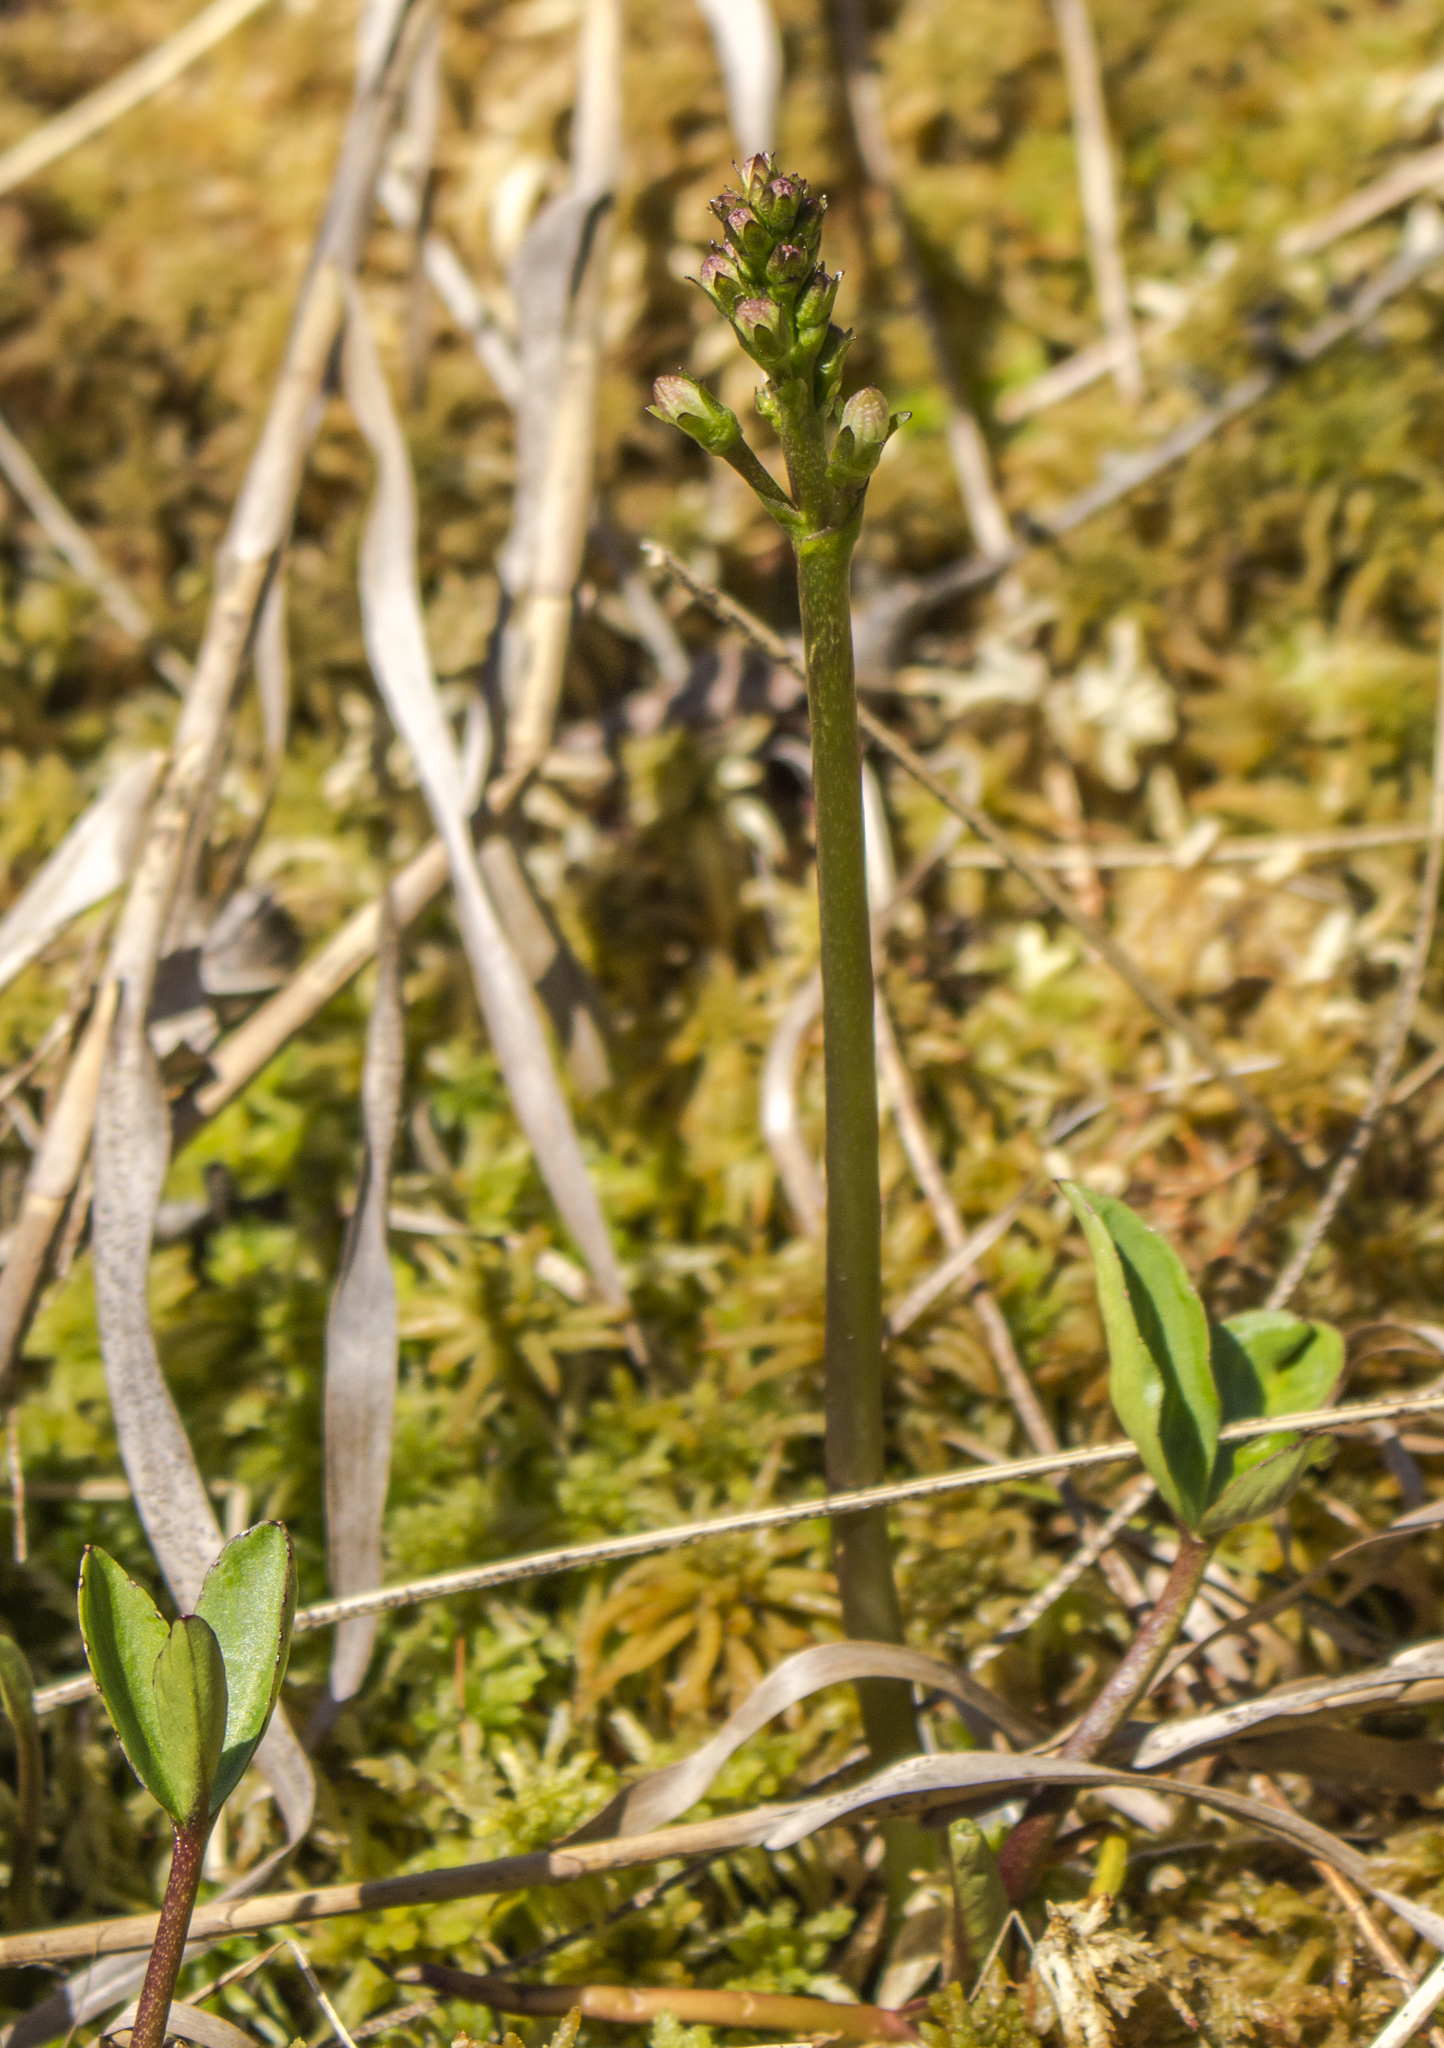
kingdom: Plantae
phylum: Tracheophyta
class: Magnoliopsida
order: Asterales
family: Menyanthaceae
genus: Menyanthes
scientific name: Menyanthes trifoliata
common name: Bogbean
